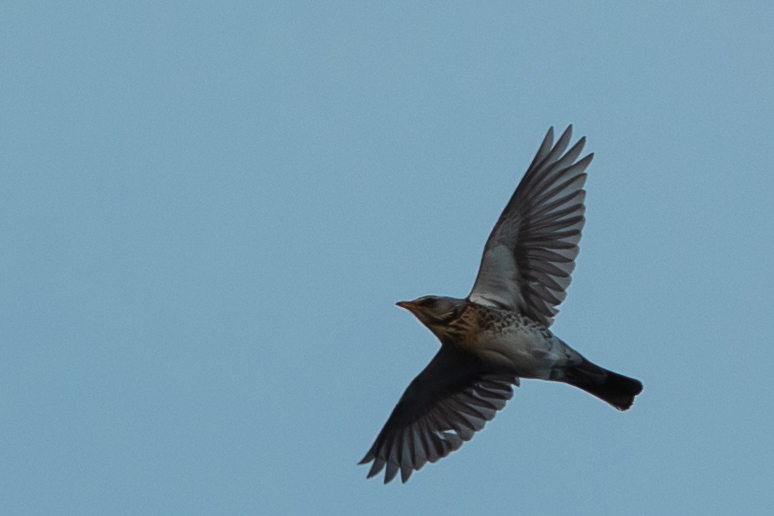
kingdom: Animalia
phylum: Chordata
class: Aves
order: Passeriformes
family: Turdidae
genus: Turdus
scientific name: Turdus pilaris
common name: Fieldfare
